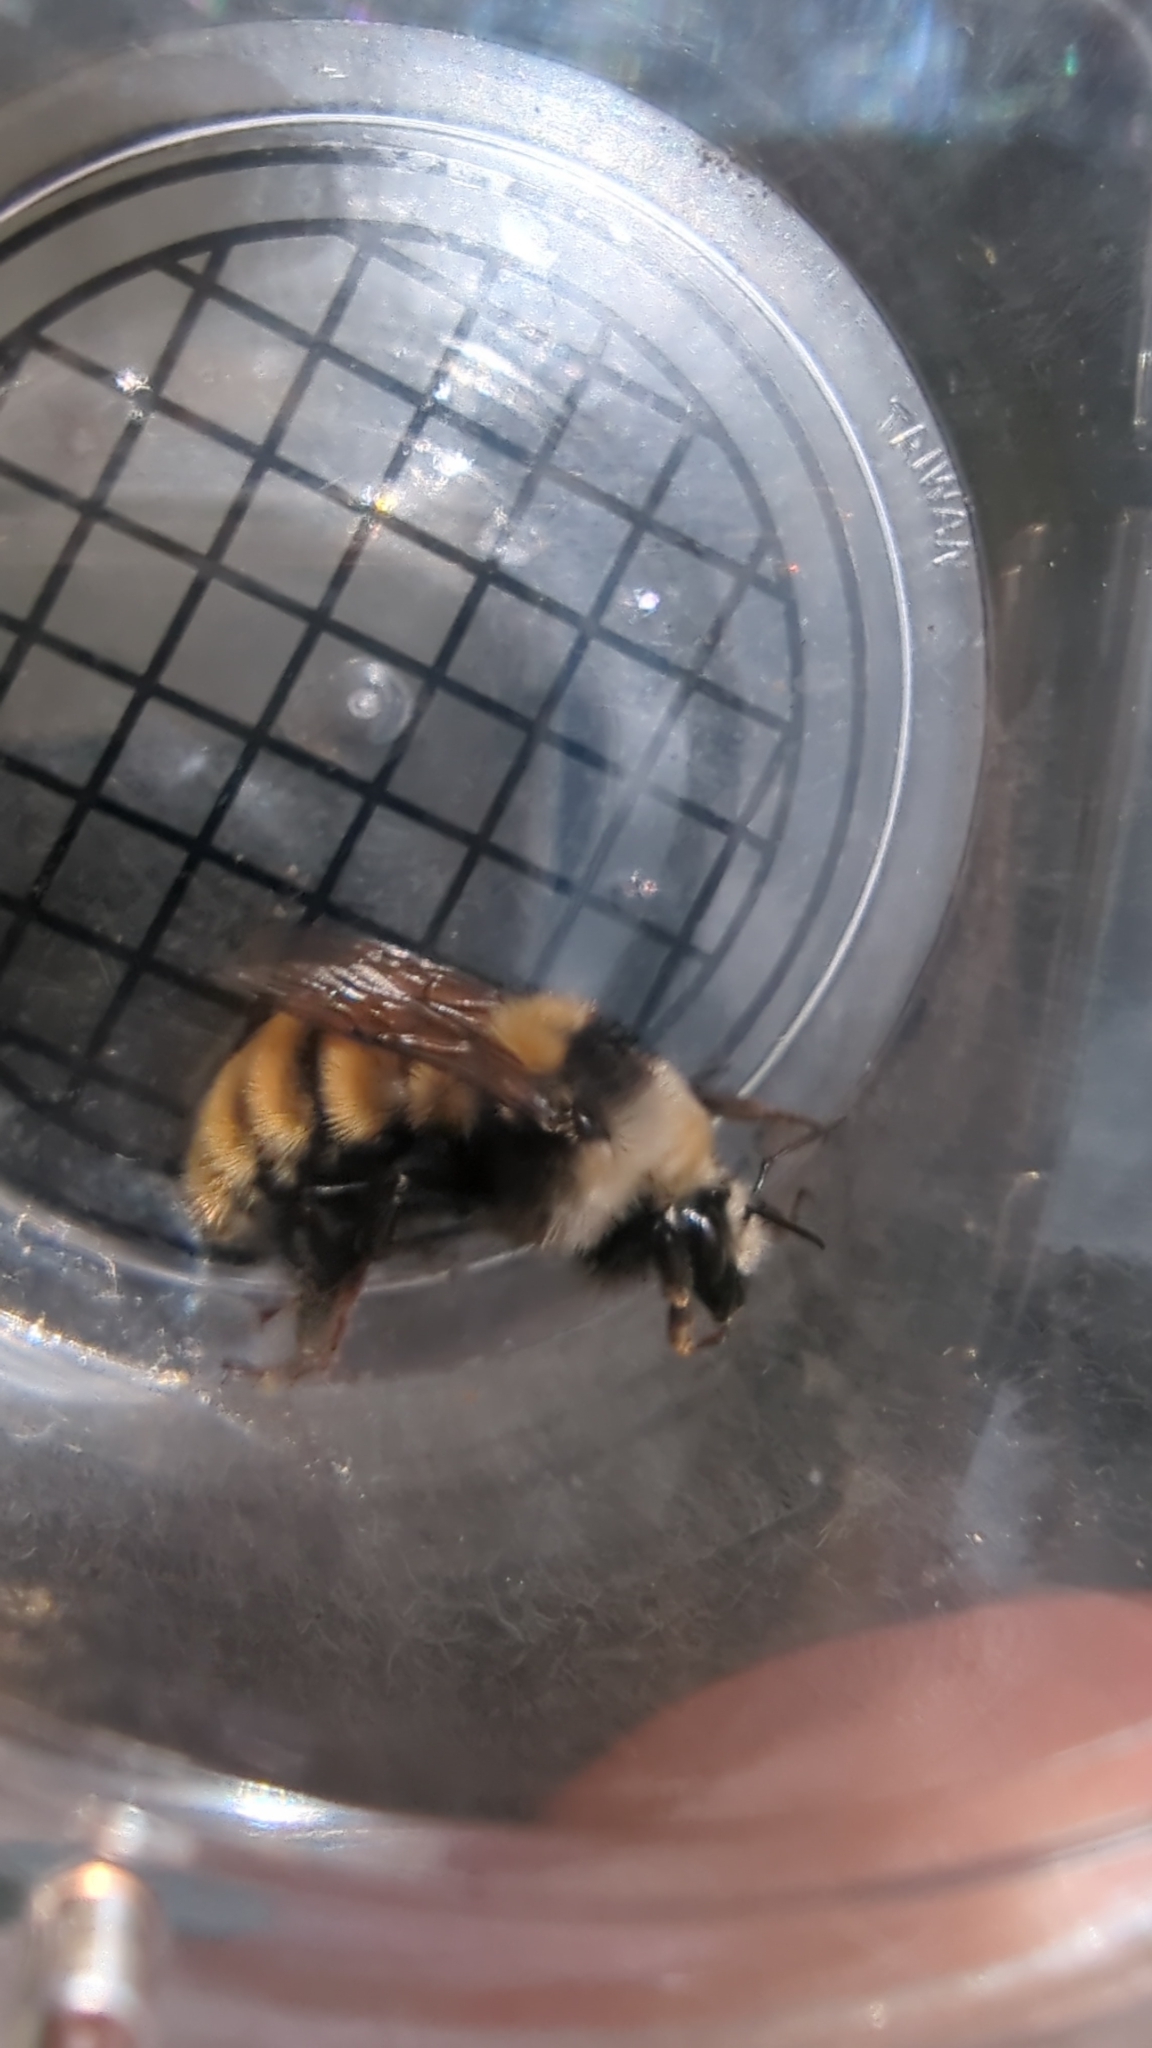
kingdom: Animalia
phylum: Arthropoda
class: Insecta
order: Hymenoptera
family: Apidae
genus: Bombus
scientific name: Bombus appositus
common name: White-shouldered bumble bee
